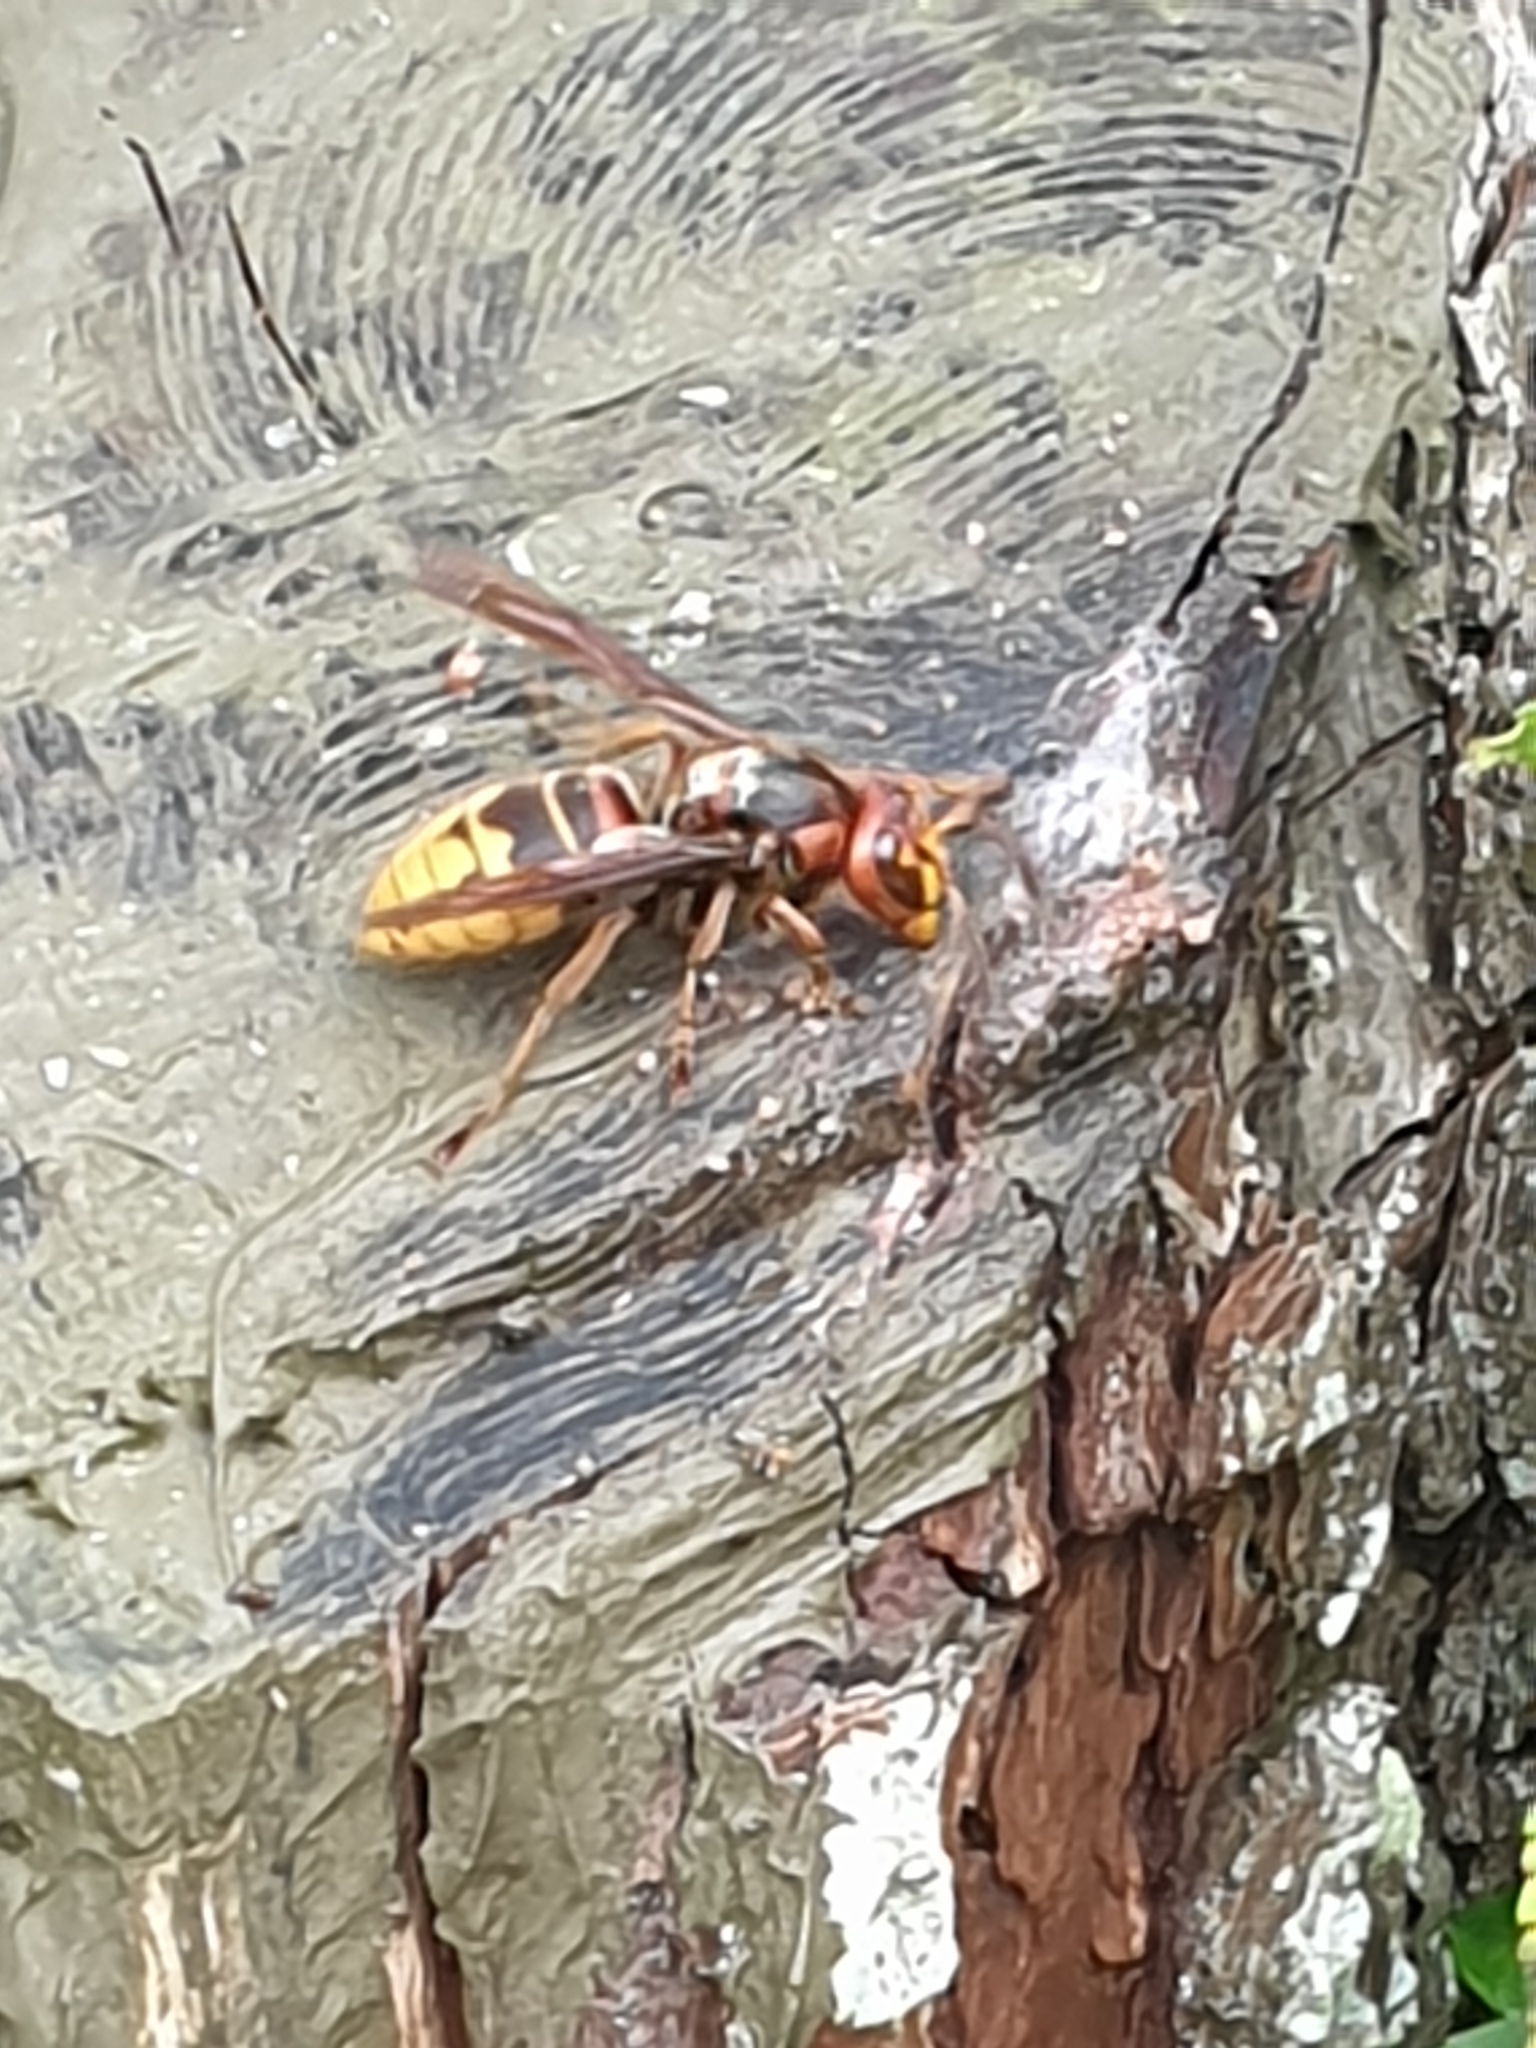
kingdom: Animalia
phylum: Arthropoda
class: Insecta
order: Hymenoptera
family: Vespidae
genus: Vespa
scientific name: Vespa crabro
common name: Hornet
